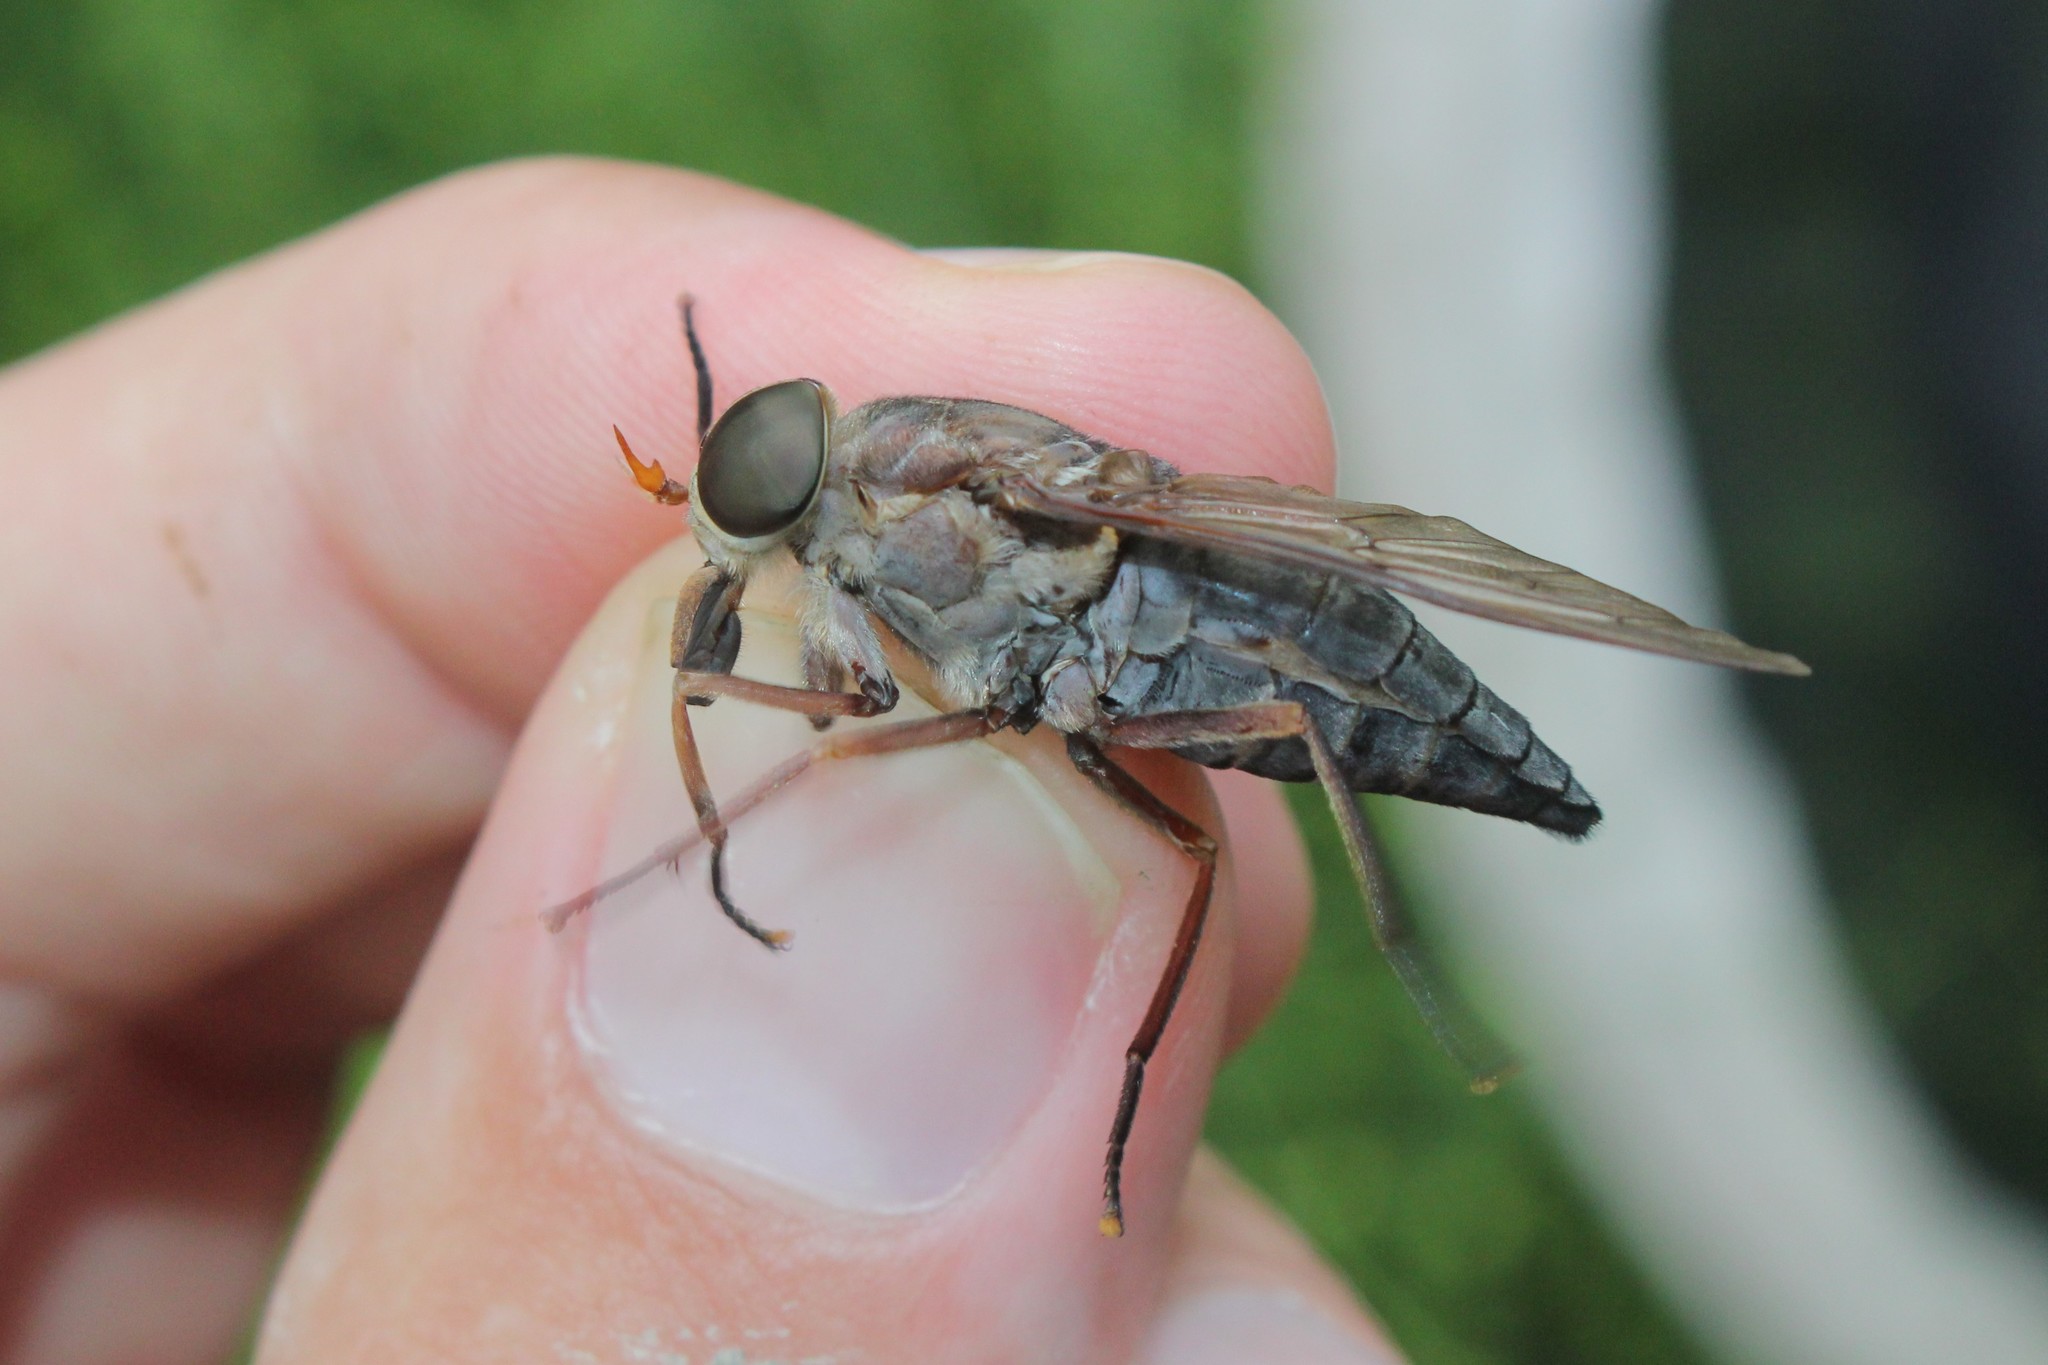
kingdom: Animalia
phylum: Arthropoda
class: Insecta
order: Diptera
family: Tabanidae
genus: Tabanus
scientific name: Tabanus calens
